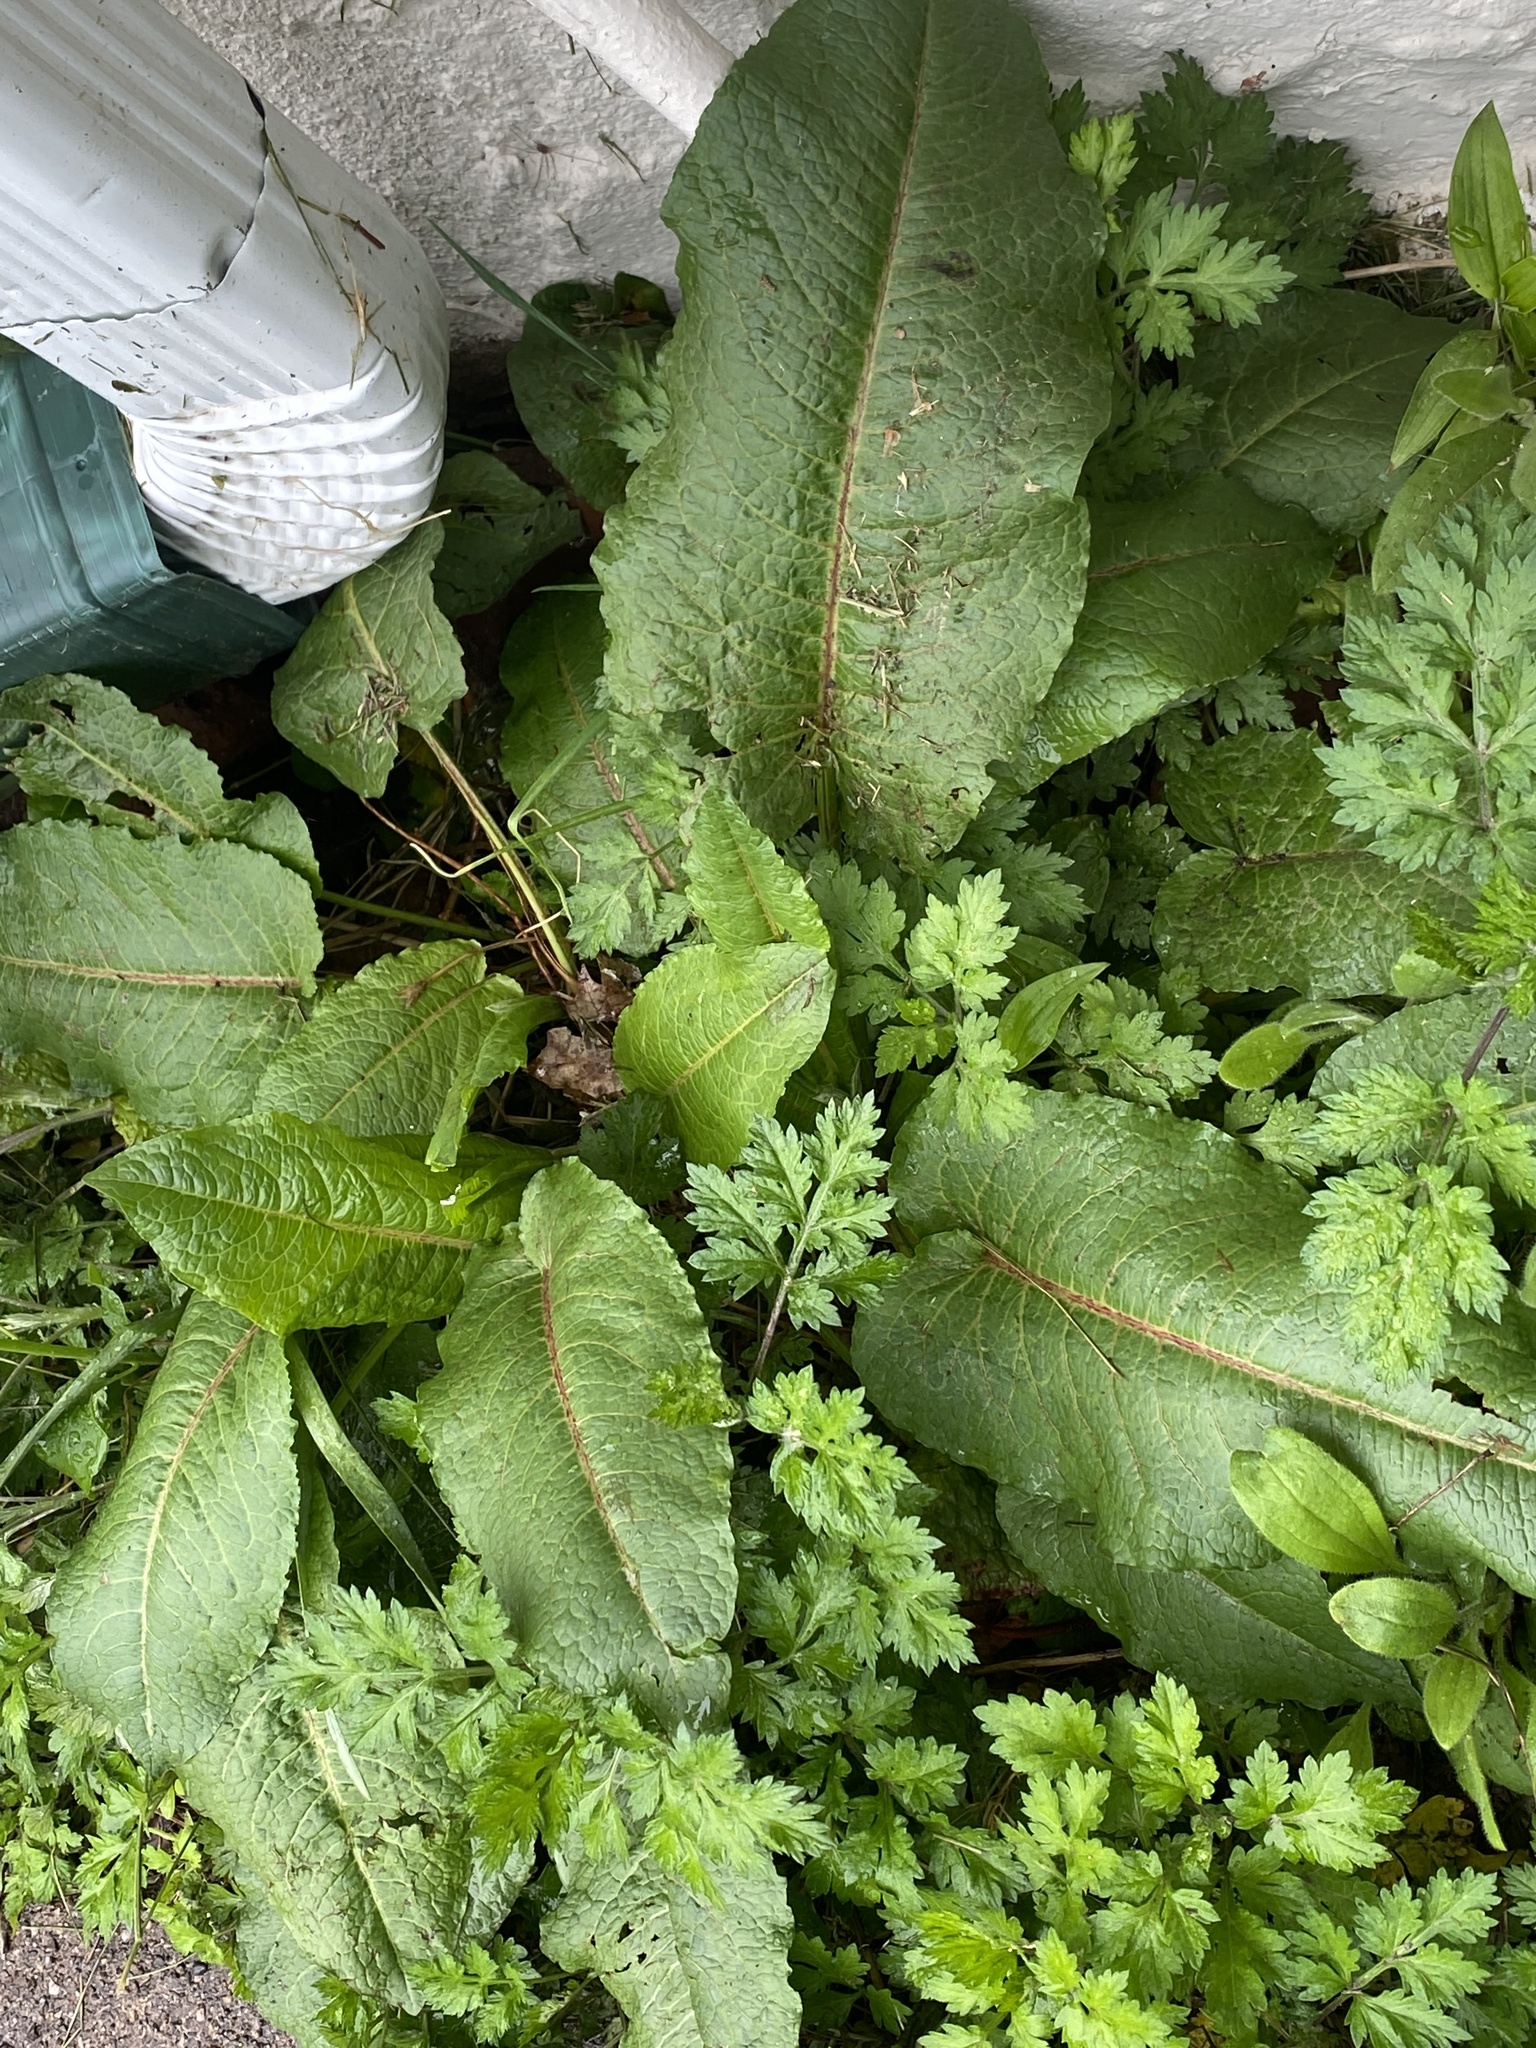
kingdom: Plantae
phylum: Tracheophyta
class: Magnoliopsida
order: Caryophyllales
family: Polygonaceae
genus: Rumex
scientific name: Rumex obtusifolius
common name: Bitter dock
